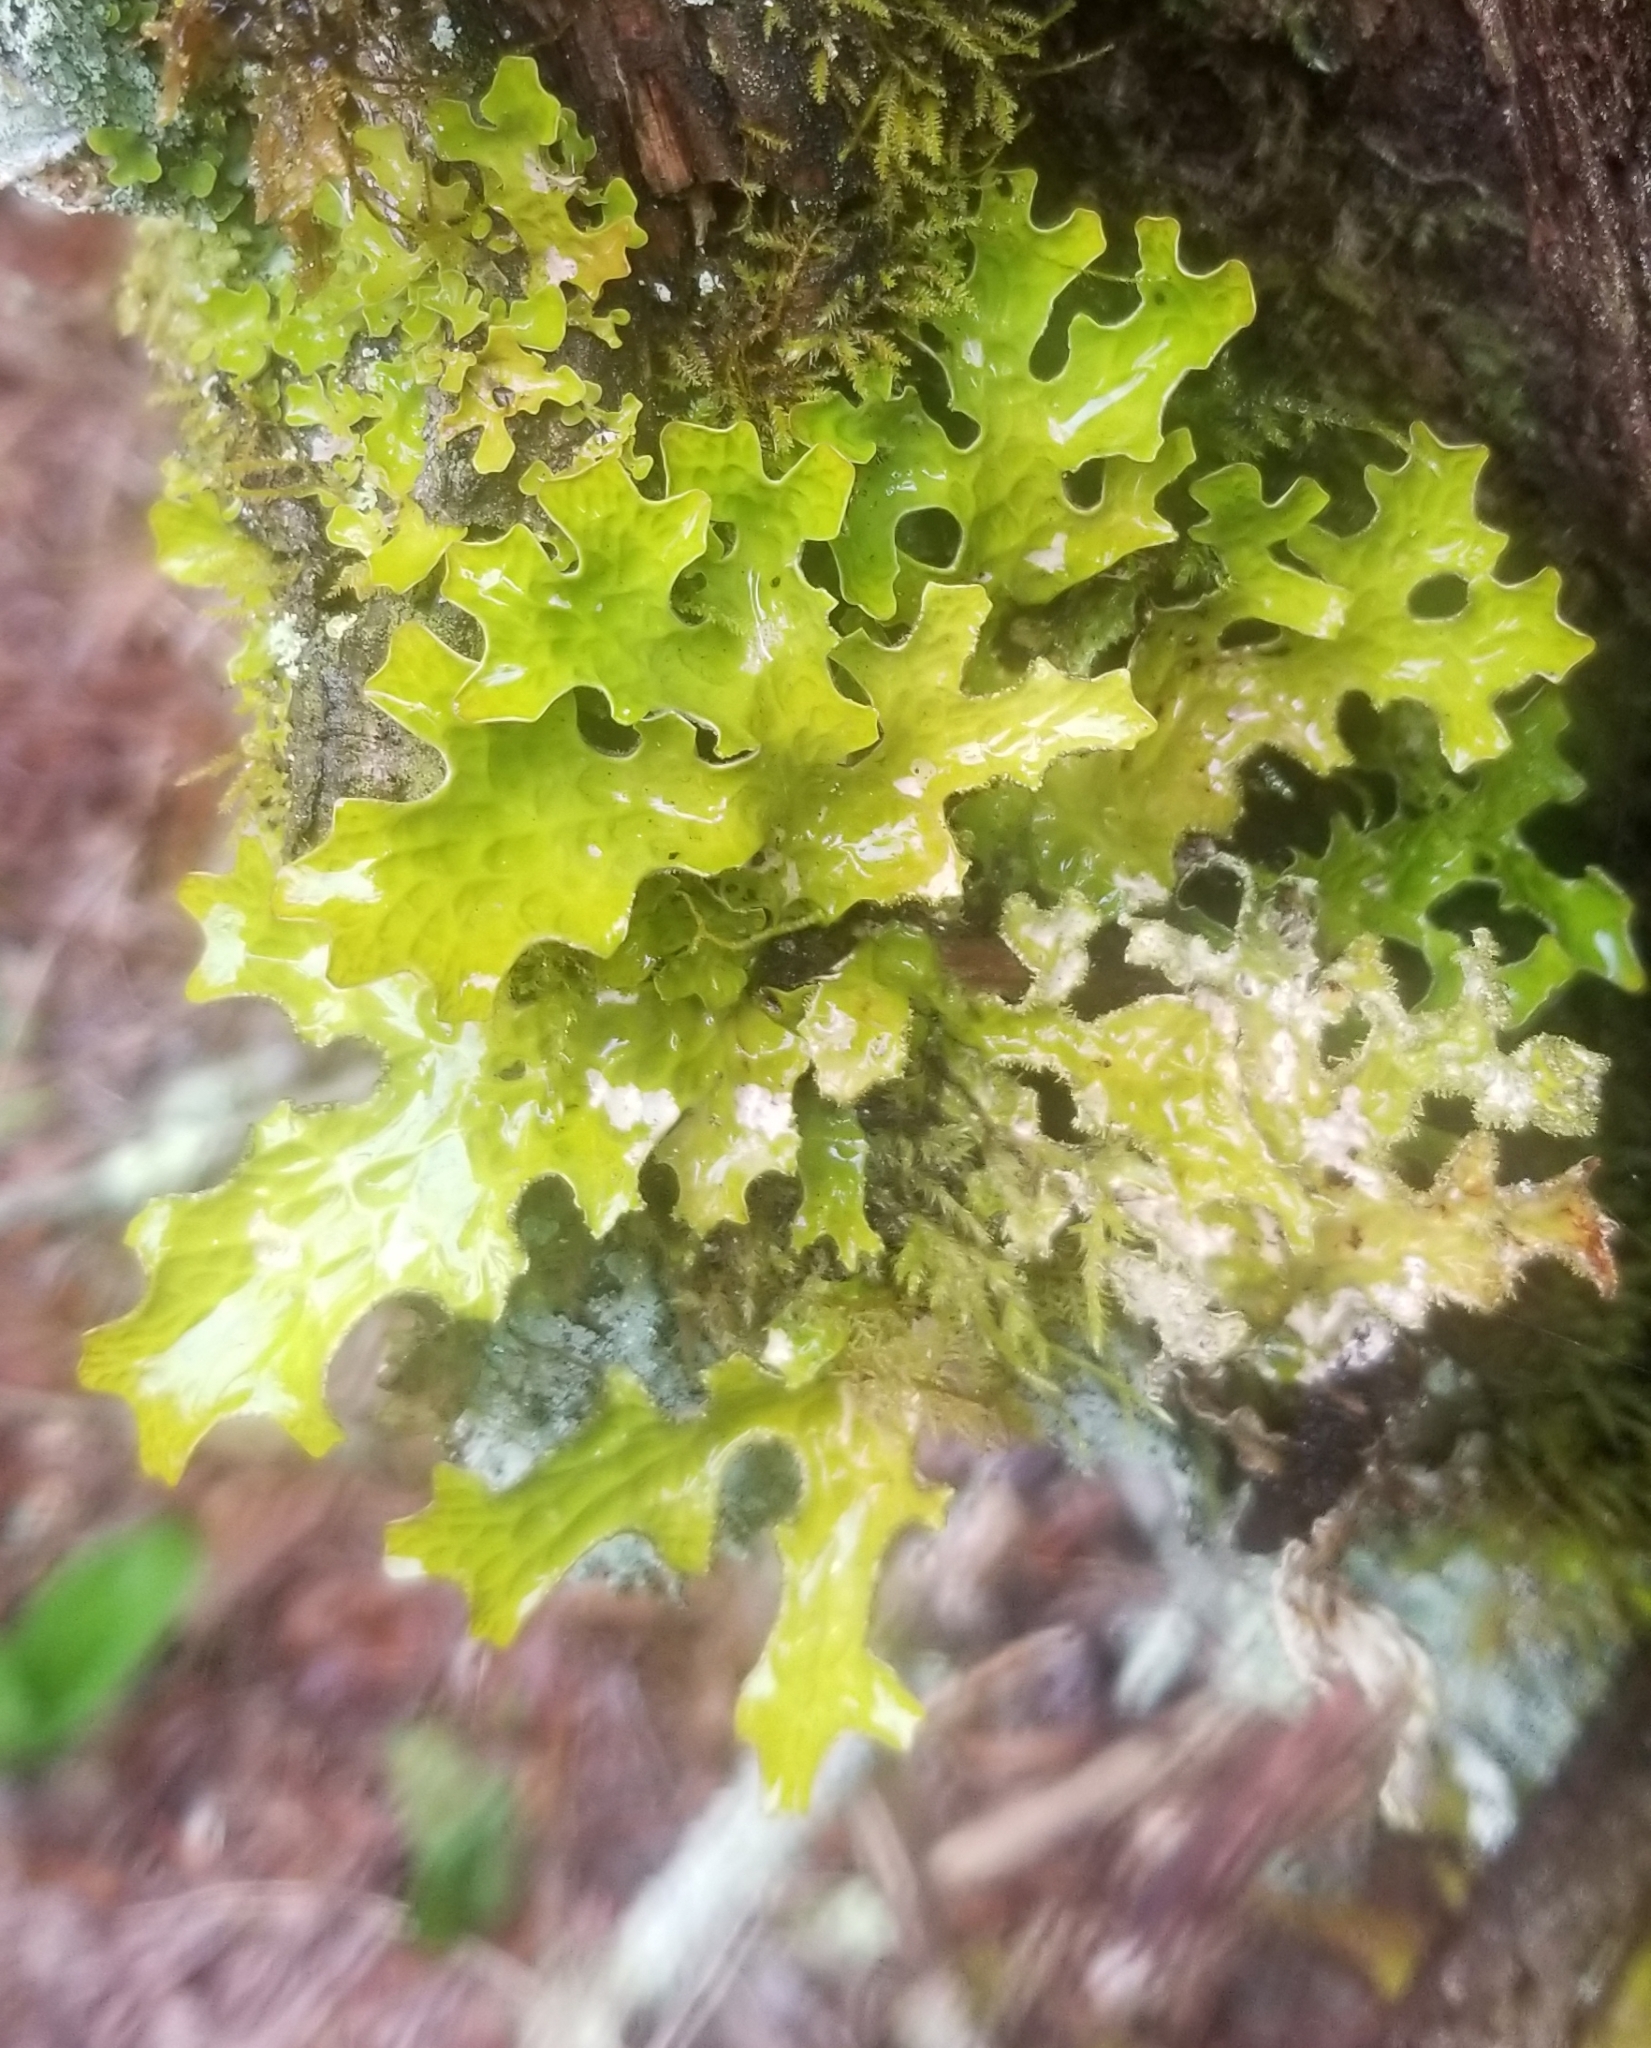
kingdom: Fungi
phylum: Ascomycota
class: Lecanoromycetes
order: Peltigerales
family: Lobariaceae
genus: Lobaria
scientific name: Lobaria pulmonaria
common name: Lungwort
